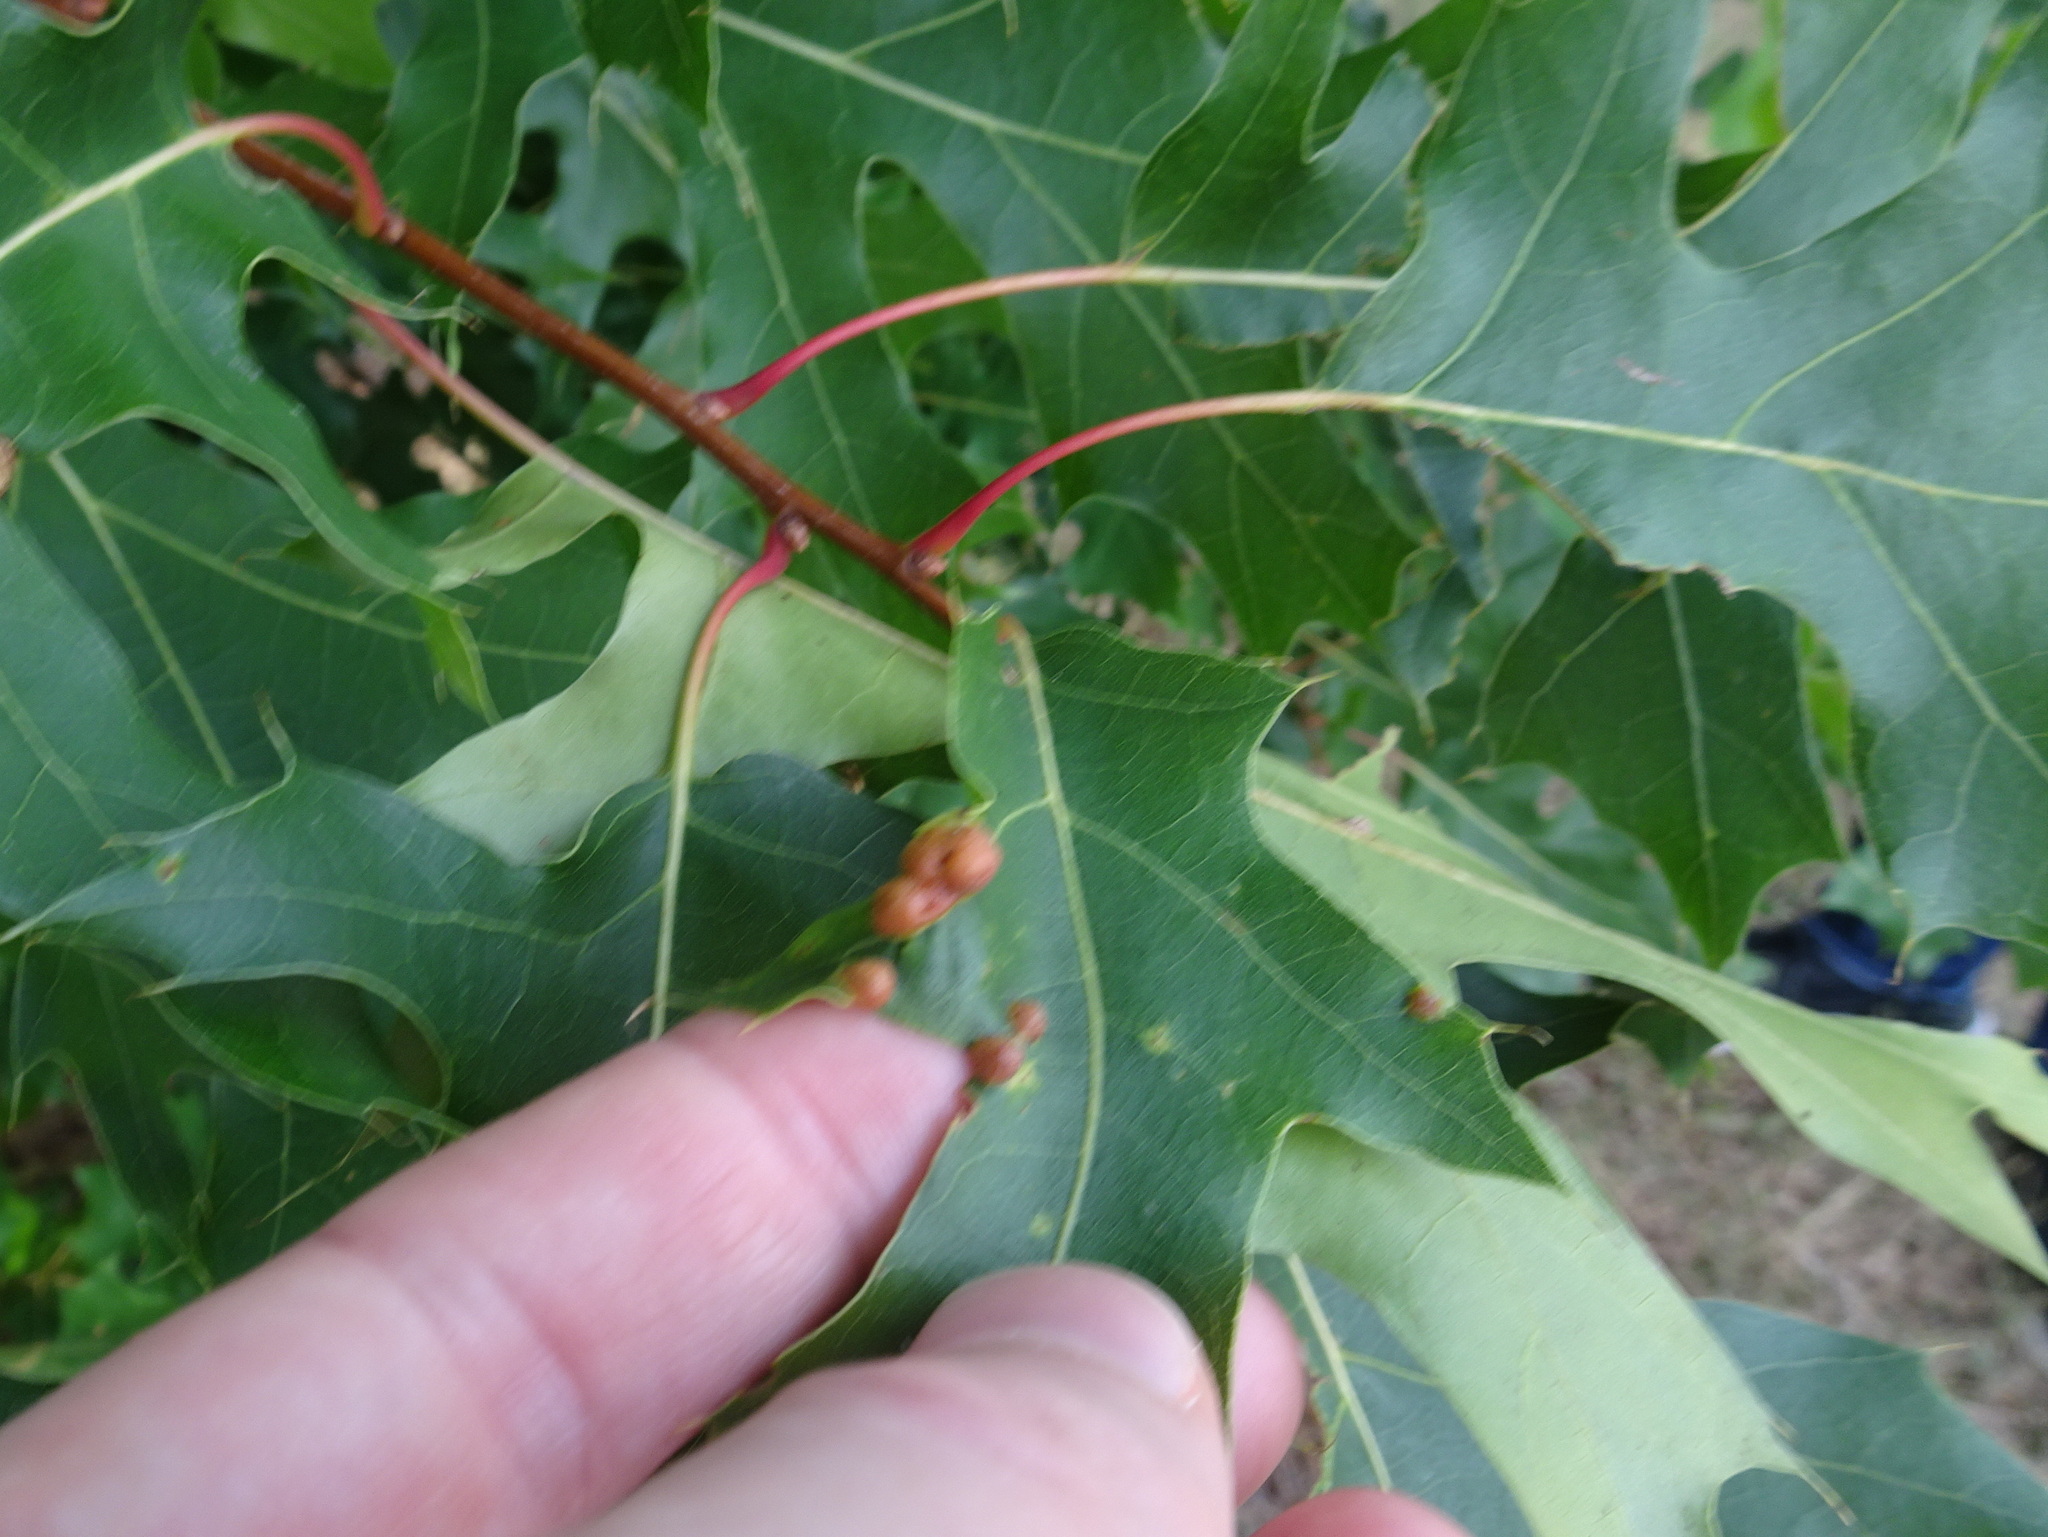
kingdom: Animalia
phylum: Arthropoda
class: Insecta
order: Diptera
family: Cecidomyiidae
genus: Polystepha
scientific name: Polystepha pilulae
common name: Oak leaf gall midge
